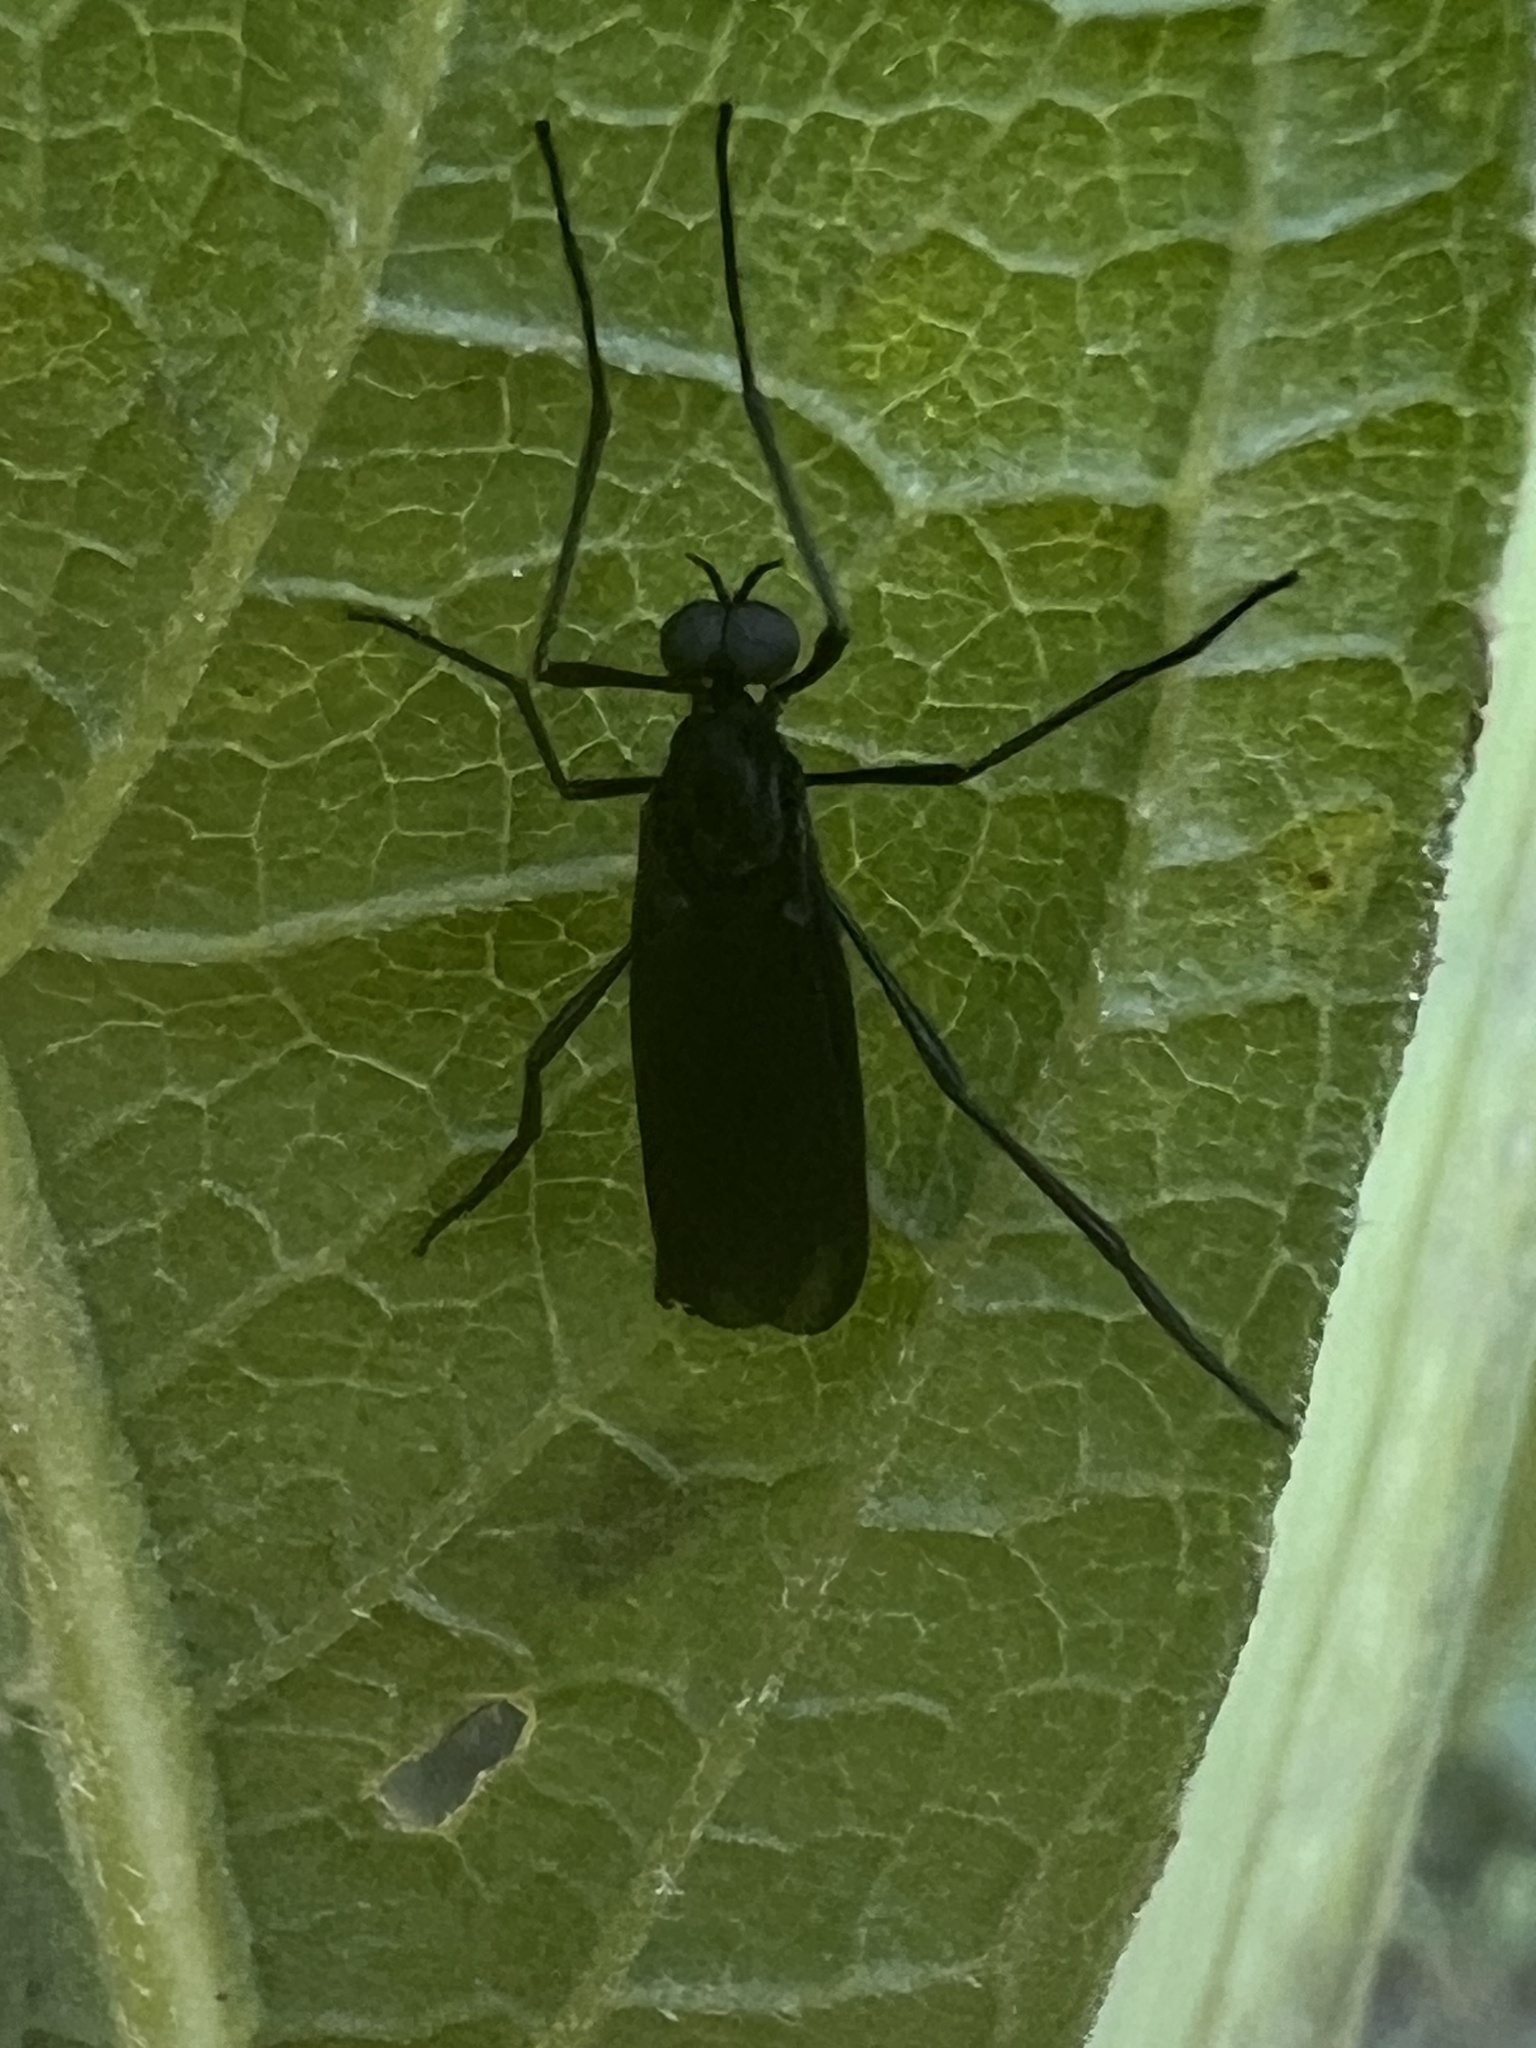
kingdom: Animalia
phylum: Arthropoda
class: Insecta
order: Diptera
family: Bibionidae
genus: Penthetria
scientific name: Penthetria heteroptera
